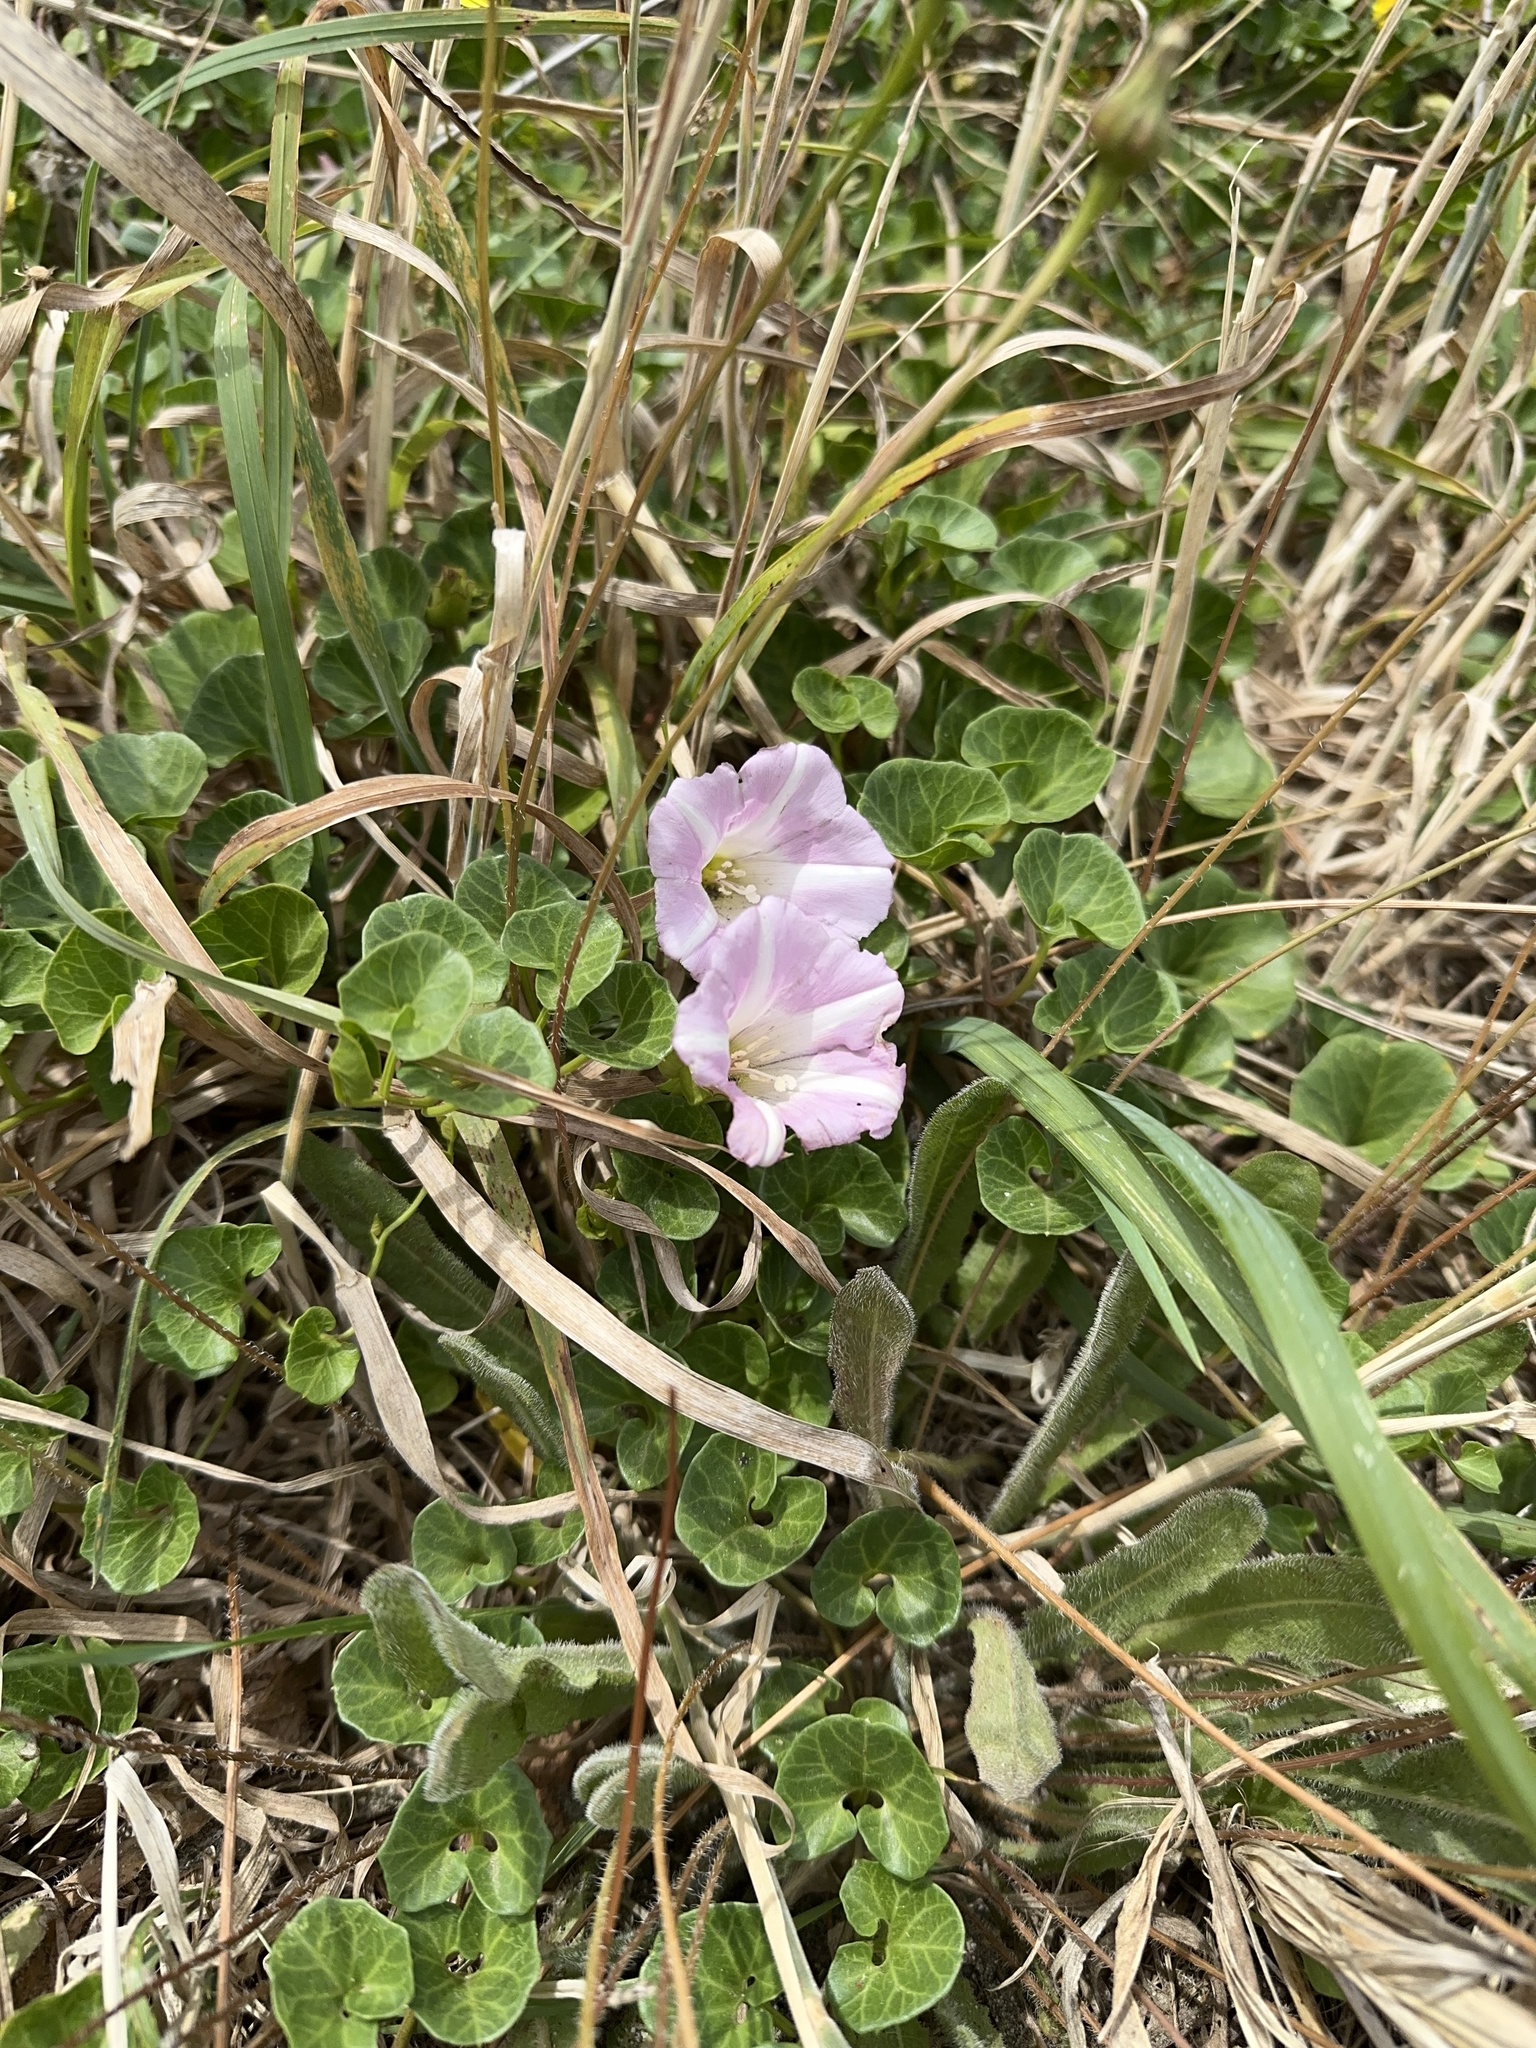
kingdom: Plantae
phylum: Tracheophyta
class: Magnoliopsida
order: Solanales
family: Convolvulaceae
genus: Calystegia
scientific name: Calystegia soldanella
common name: Sea bindweed
